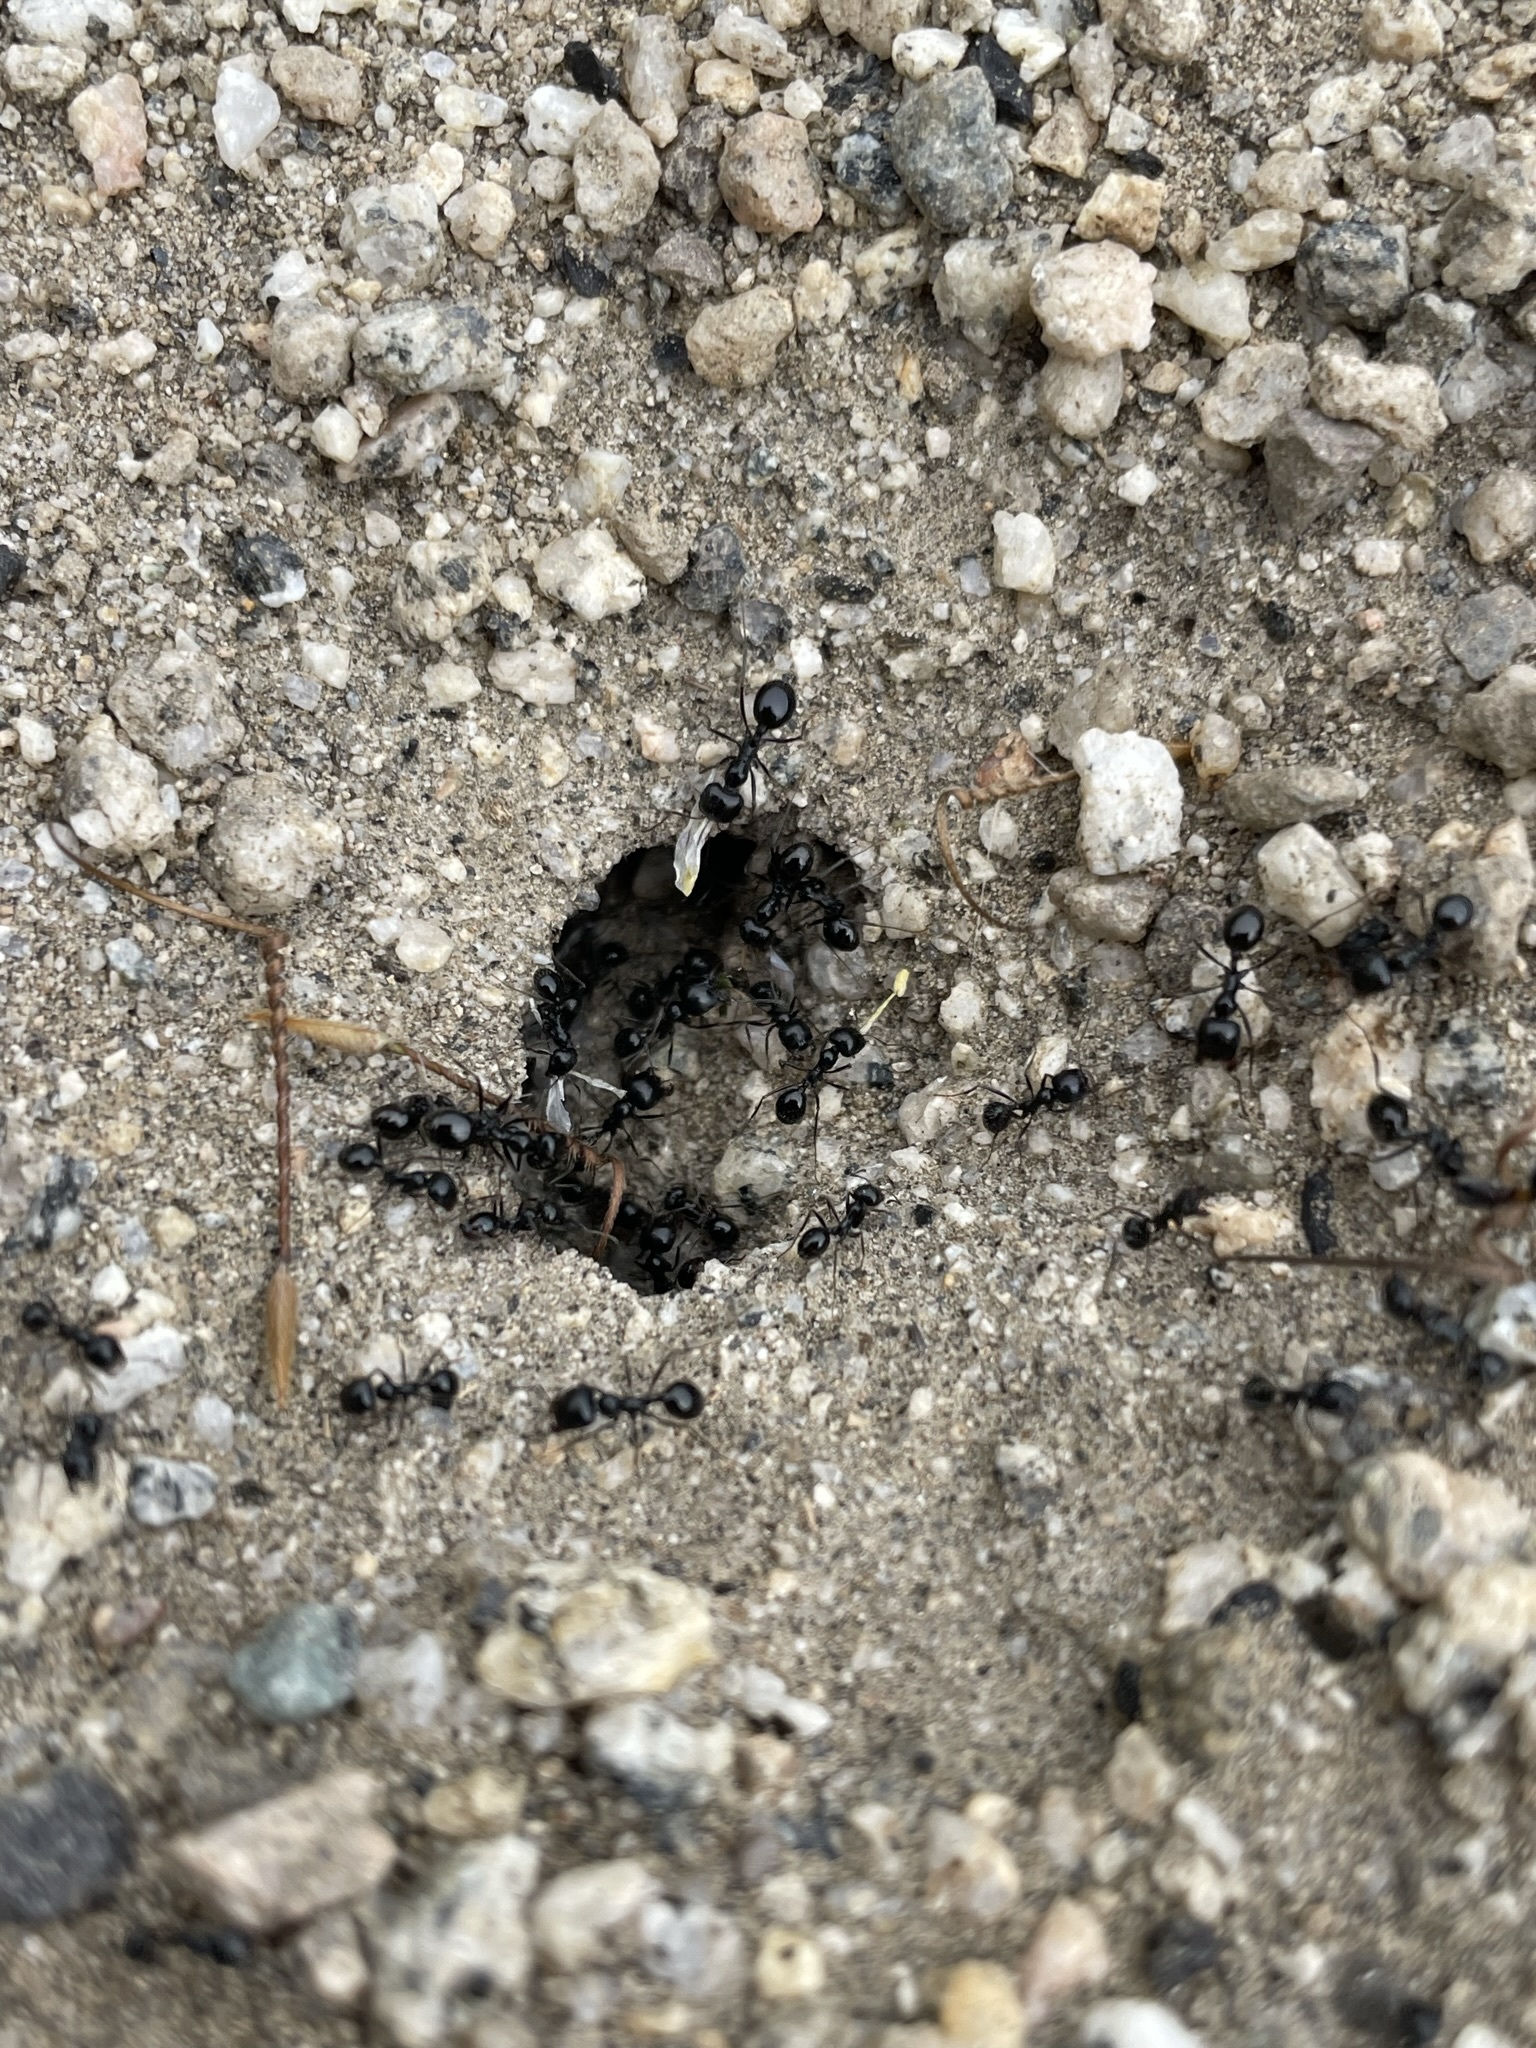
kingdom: Animalia
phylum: Arthropoda
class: Insecta
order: Hymenoptera
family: Formicidae
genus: Messor
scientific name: Messor pergandei
